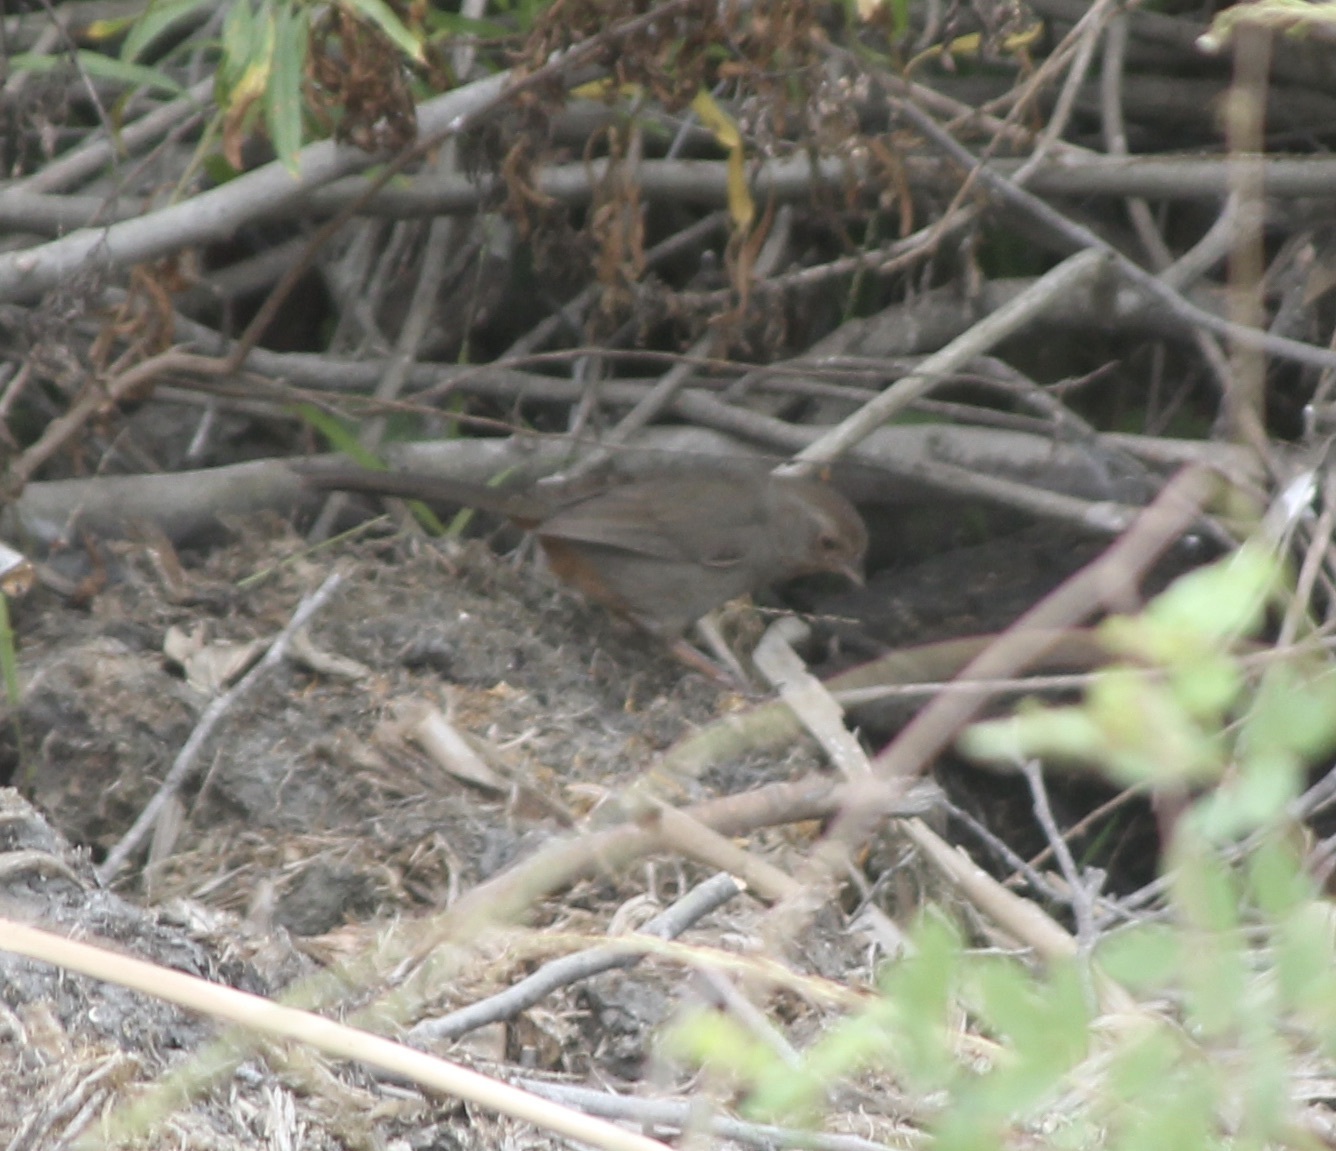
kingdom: Animalia
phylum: Chordata
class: Aves
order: Passeriformes
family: Passerellidae
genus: Melozone
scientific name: Melozone crissalis
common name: California towhee
